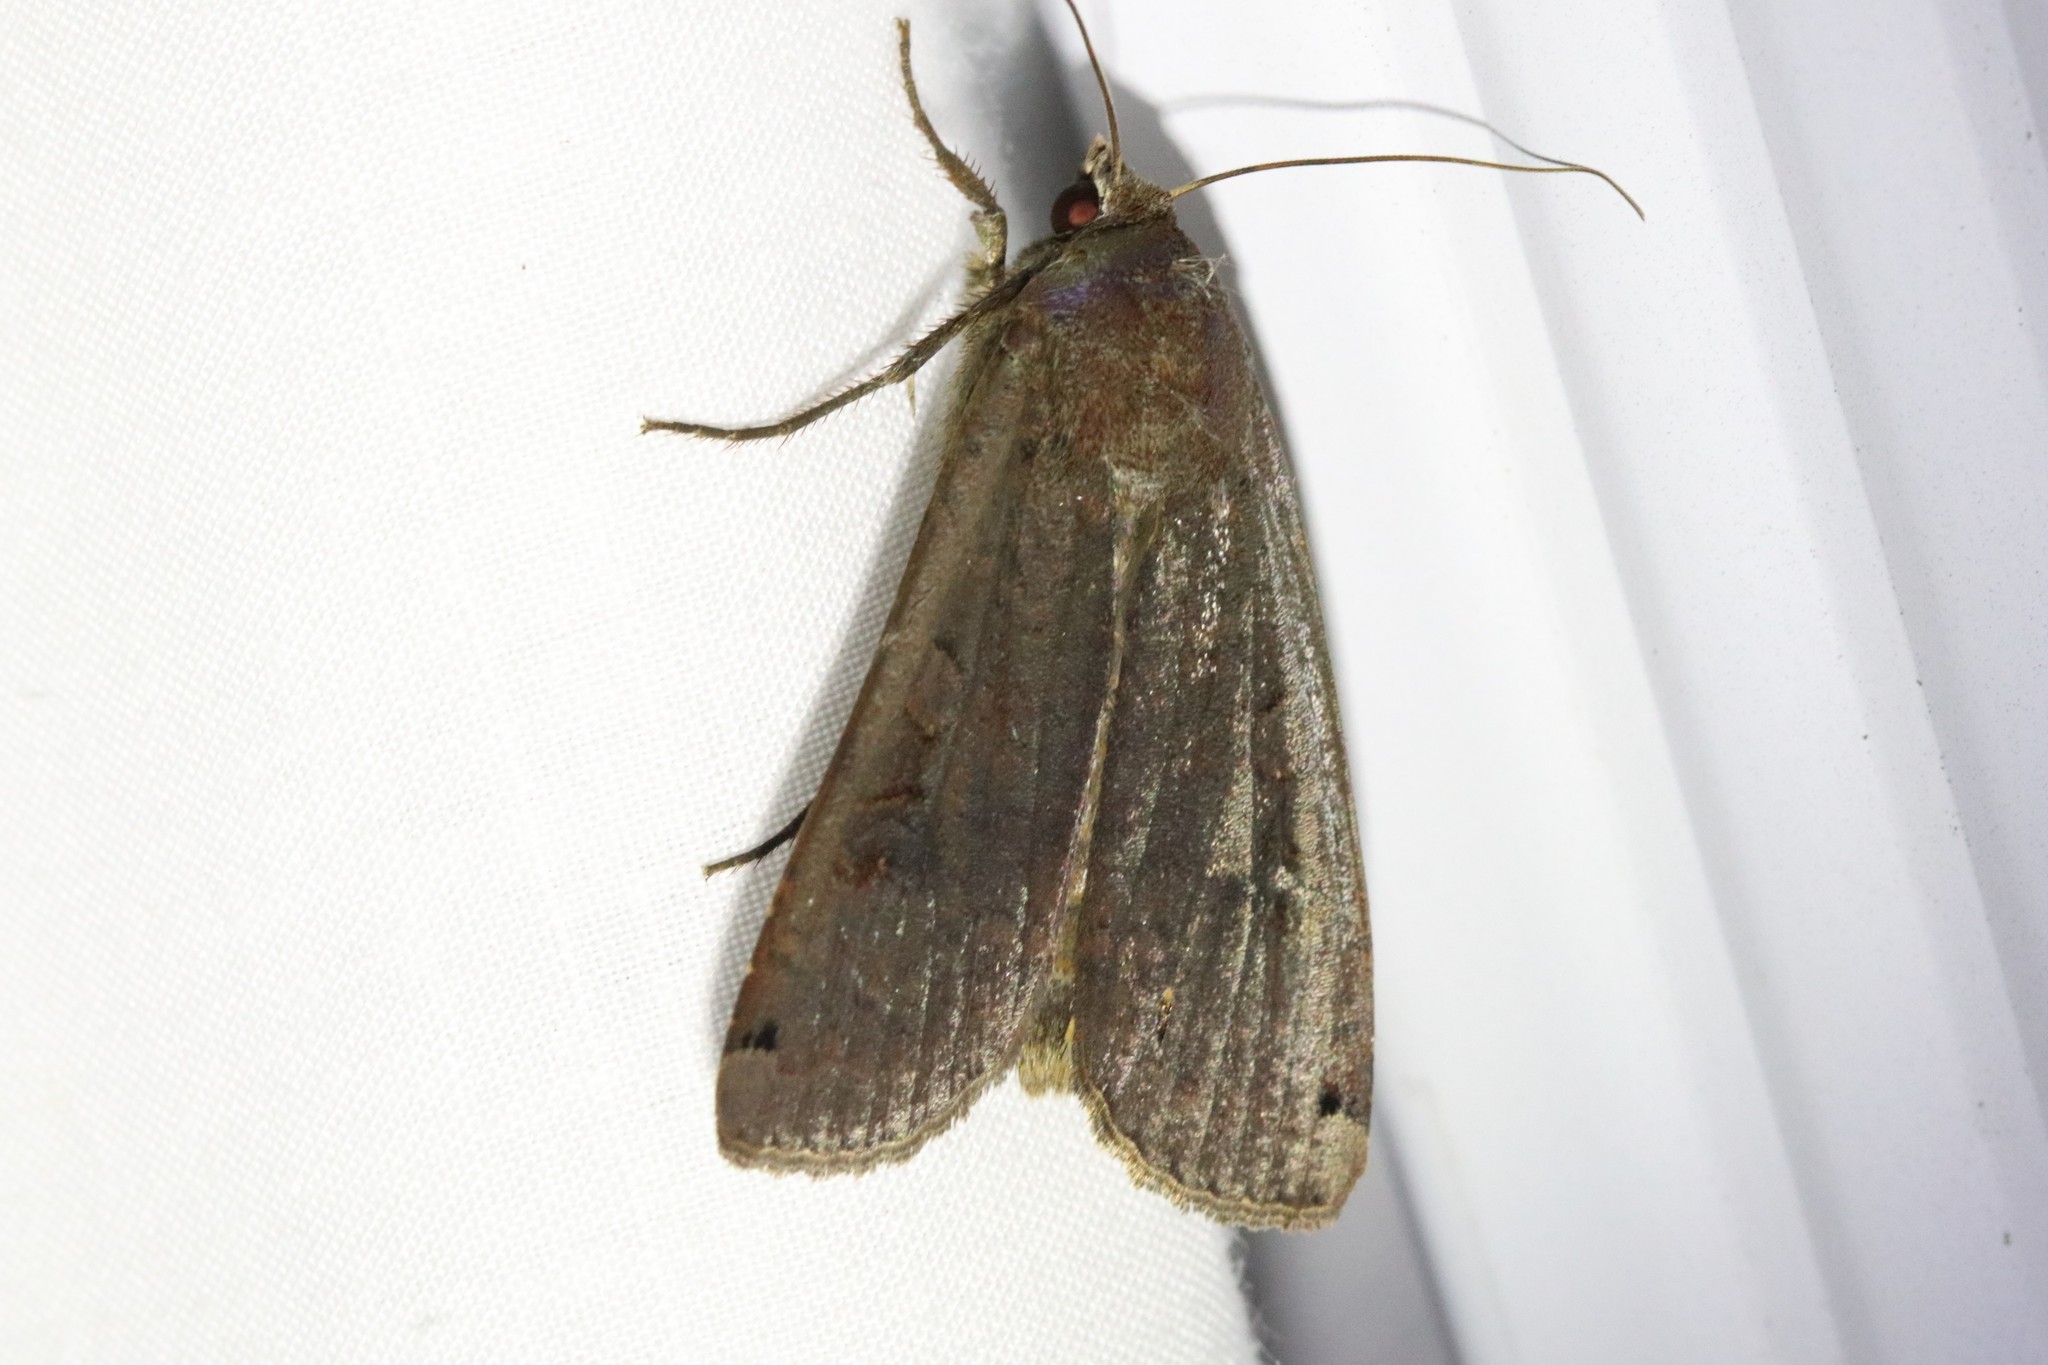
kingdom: Animalia
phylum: Arthropoda
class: Insecta
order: Lepidoptera
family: Noctuidae
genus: Noctua
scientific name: Noctua pronuba
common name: Large yellow underwing
